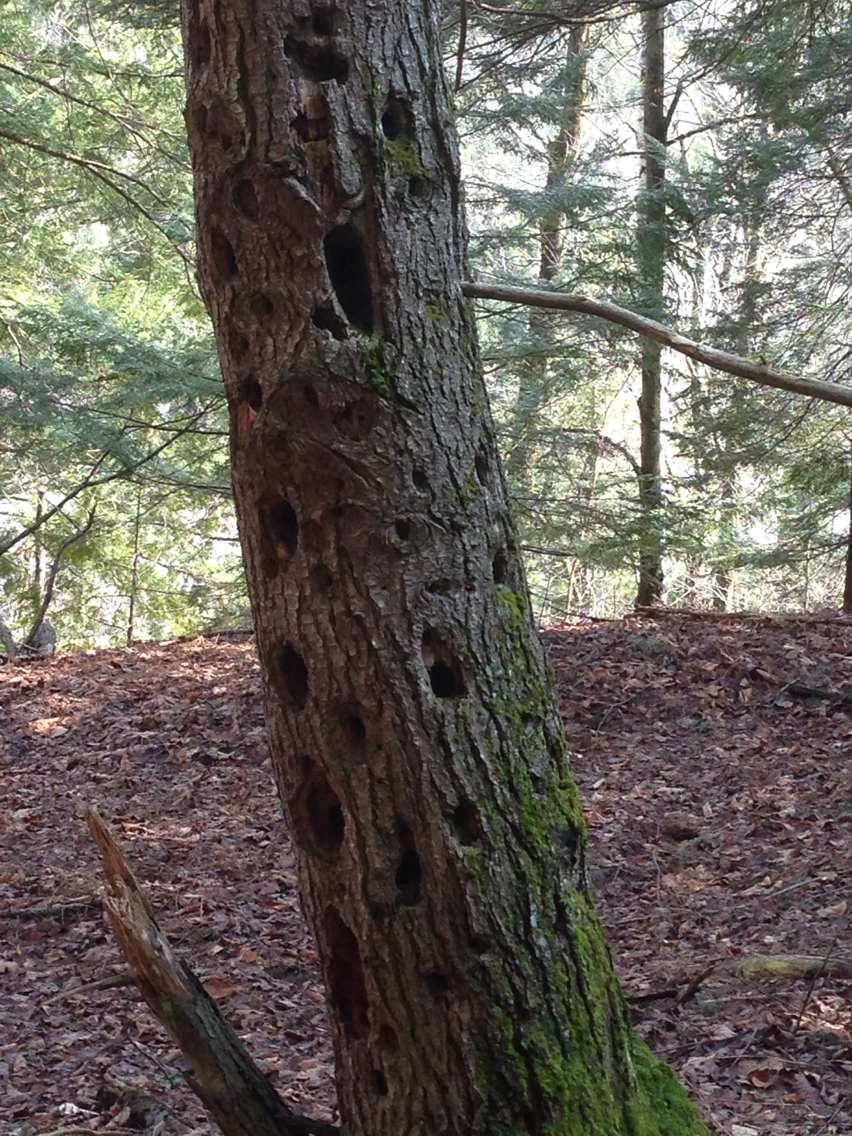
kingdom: Animalia
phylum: Chordata
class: Aves
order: Piciformes
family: Picidae
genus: Dryocopus
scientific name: Dryocopus pileatus
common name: Pileated woodpecker
